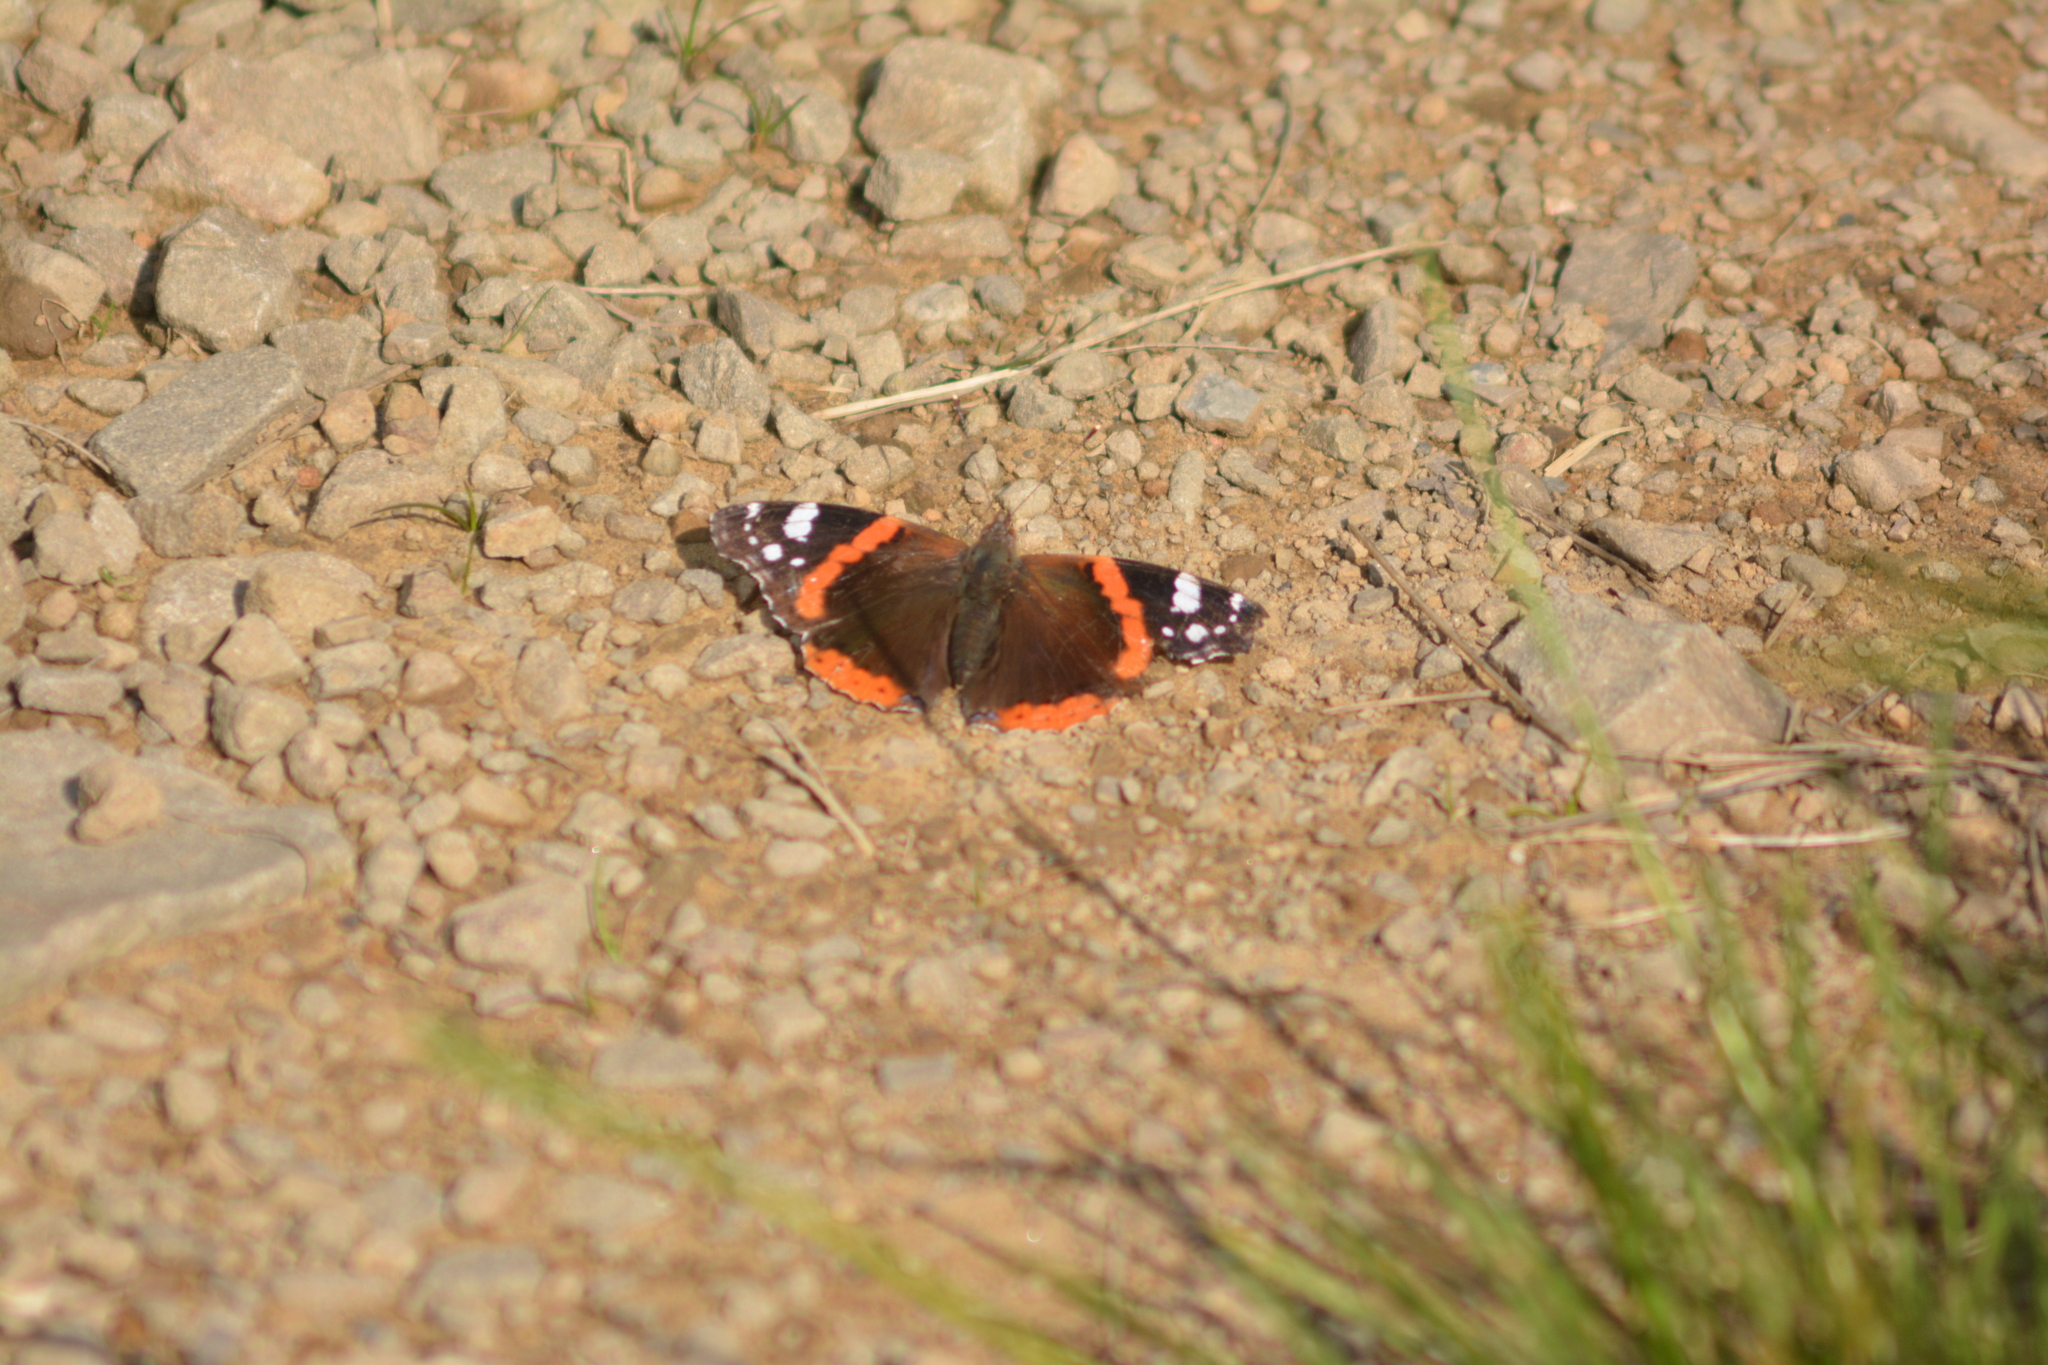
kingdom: Animalia
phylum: Arthropoda
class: Insecta
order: Lepidoptera
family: Nymphalidae
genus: Vanessa
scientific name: Vanessa atalanta
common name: Red admiral
